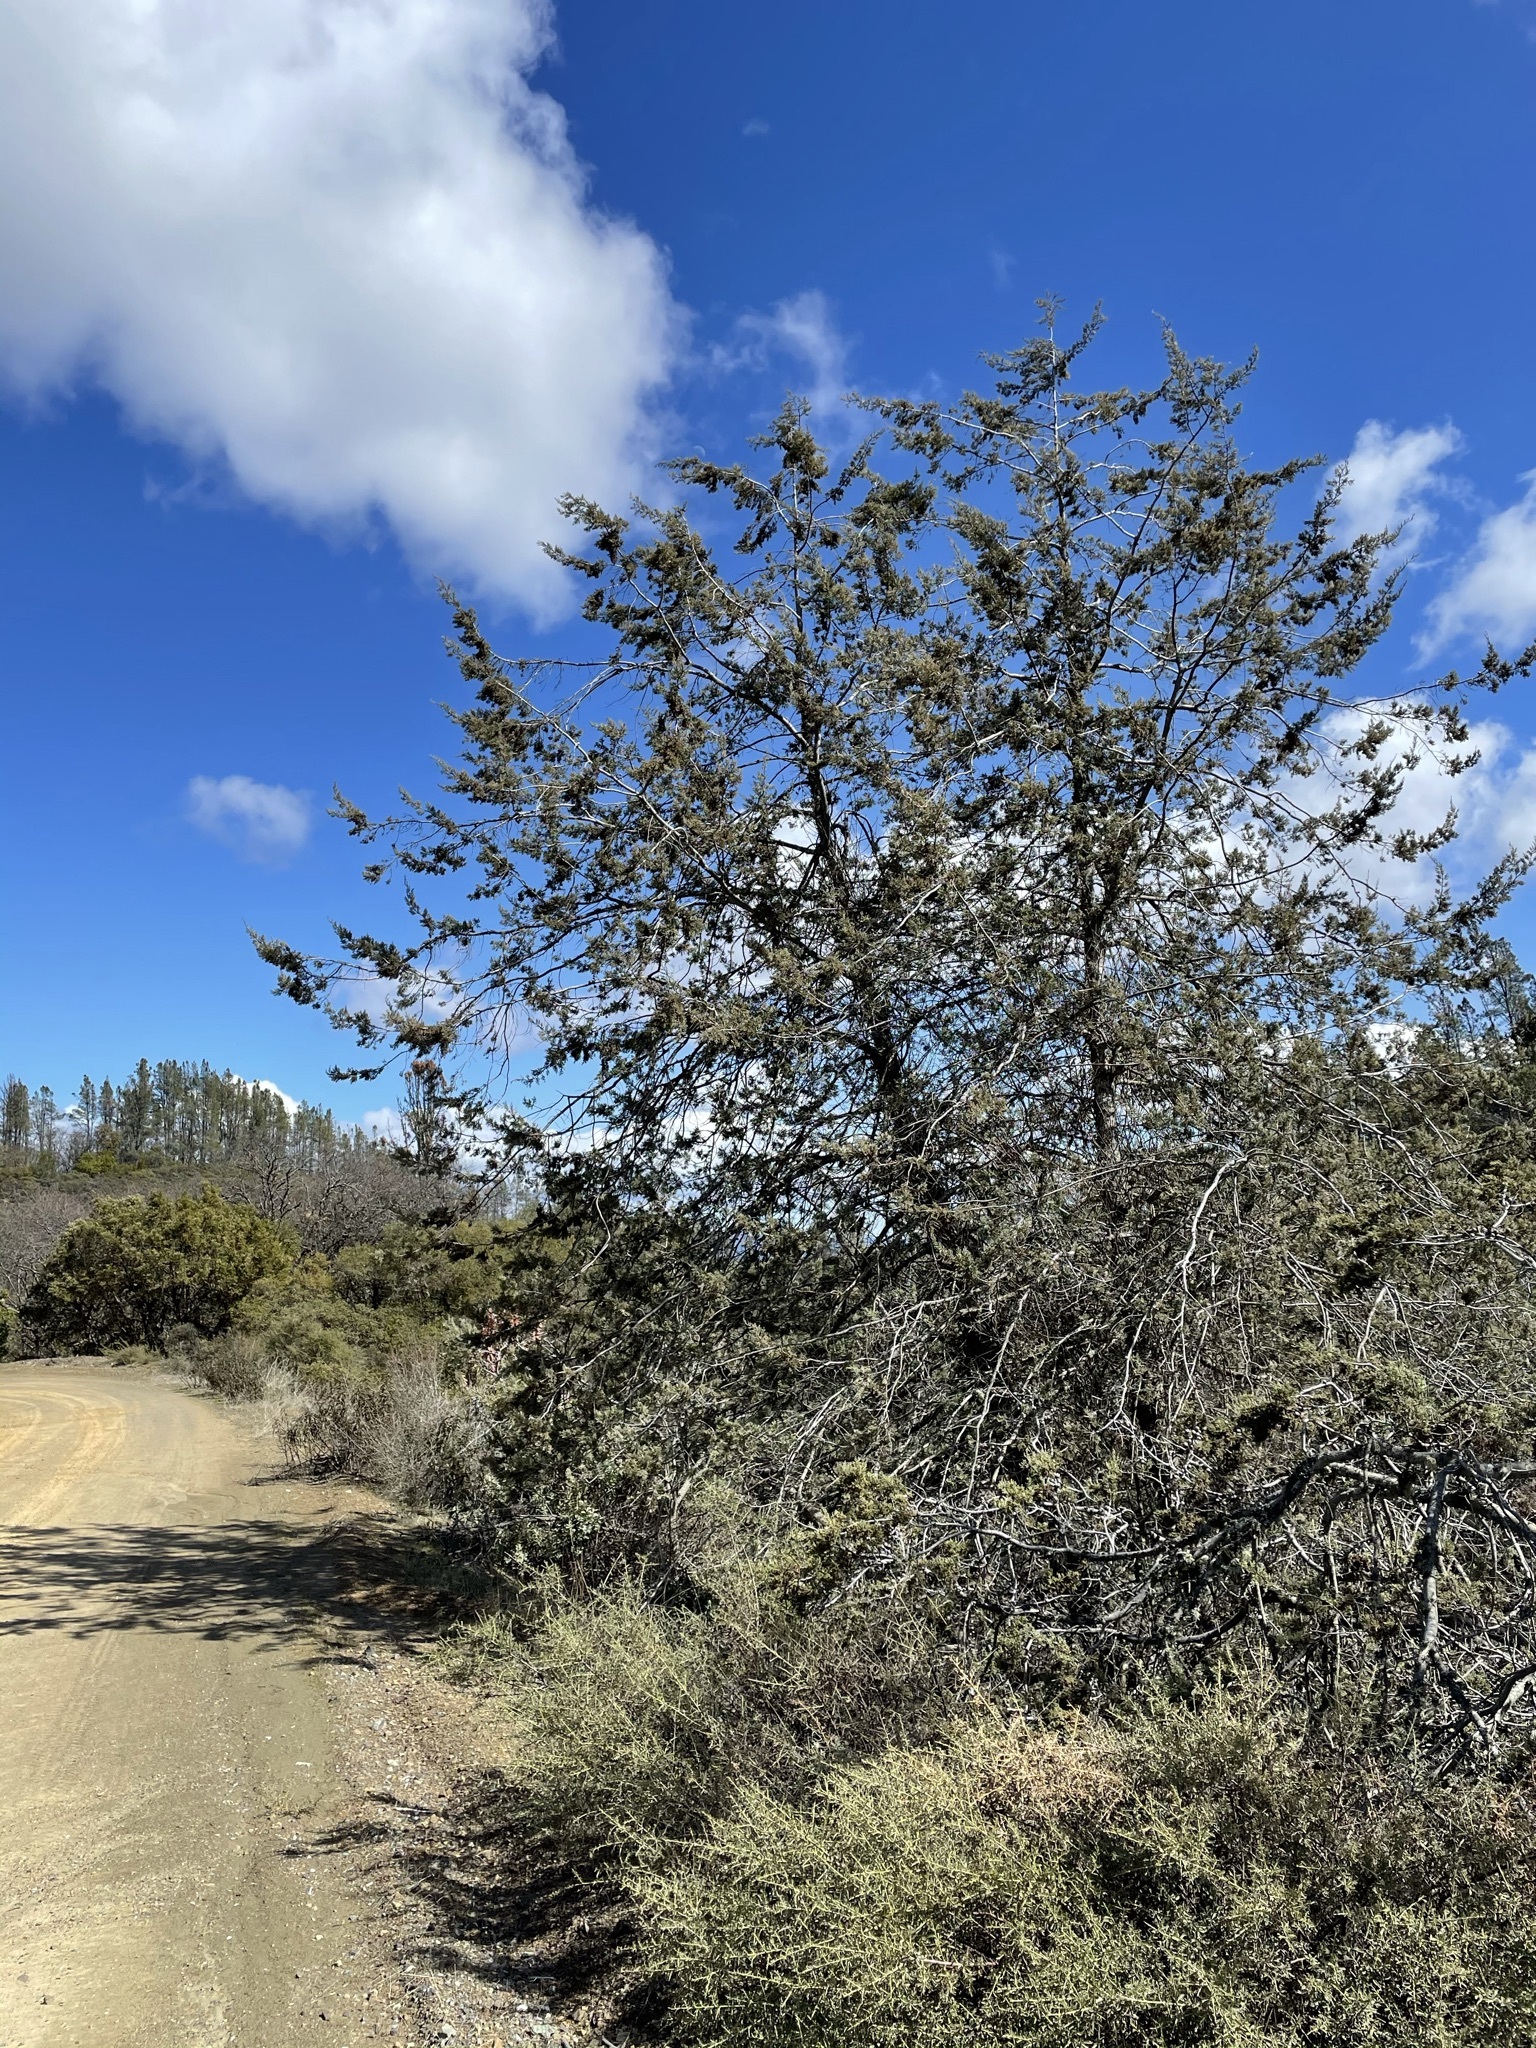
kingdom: Plantae
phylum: Tracheophyta
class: Pinopsida
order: Pinales
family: Cupressaceae
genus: Cupressus
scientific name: Cupressus macnabiana bis
